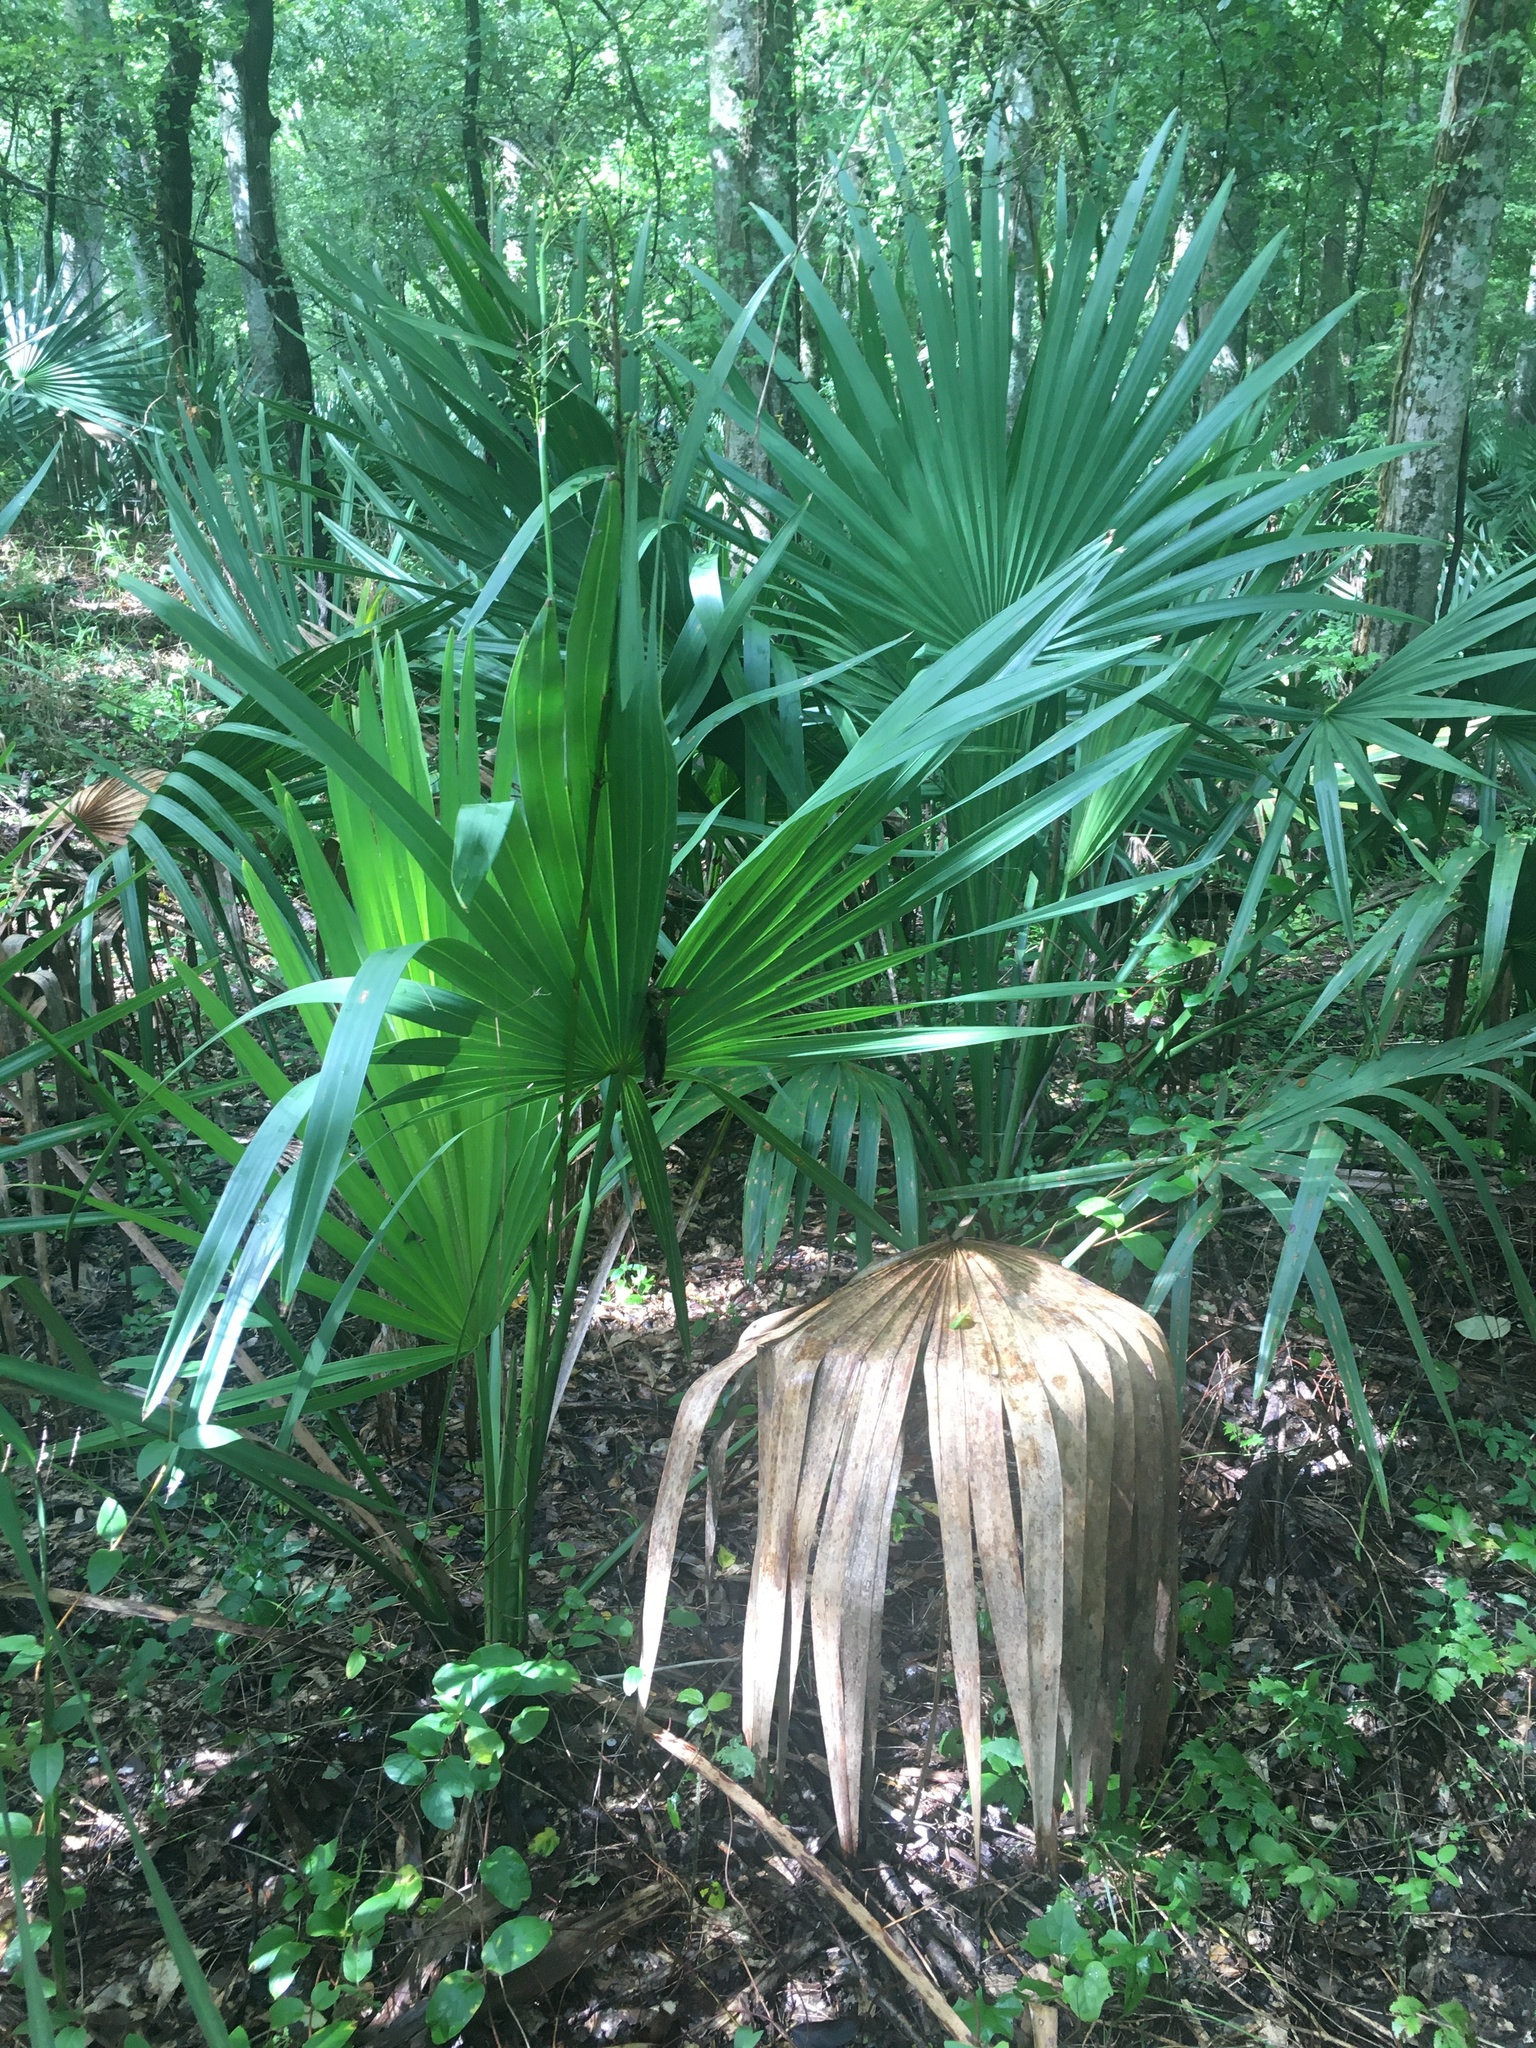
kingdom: Plantae
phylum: Tracheophyta
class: Liliopsida
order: Arecales
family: Arecaceae
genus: Sabal
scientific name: Sabal minor
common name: Dwarf palmetto
